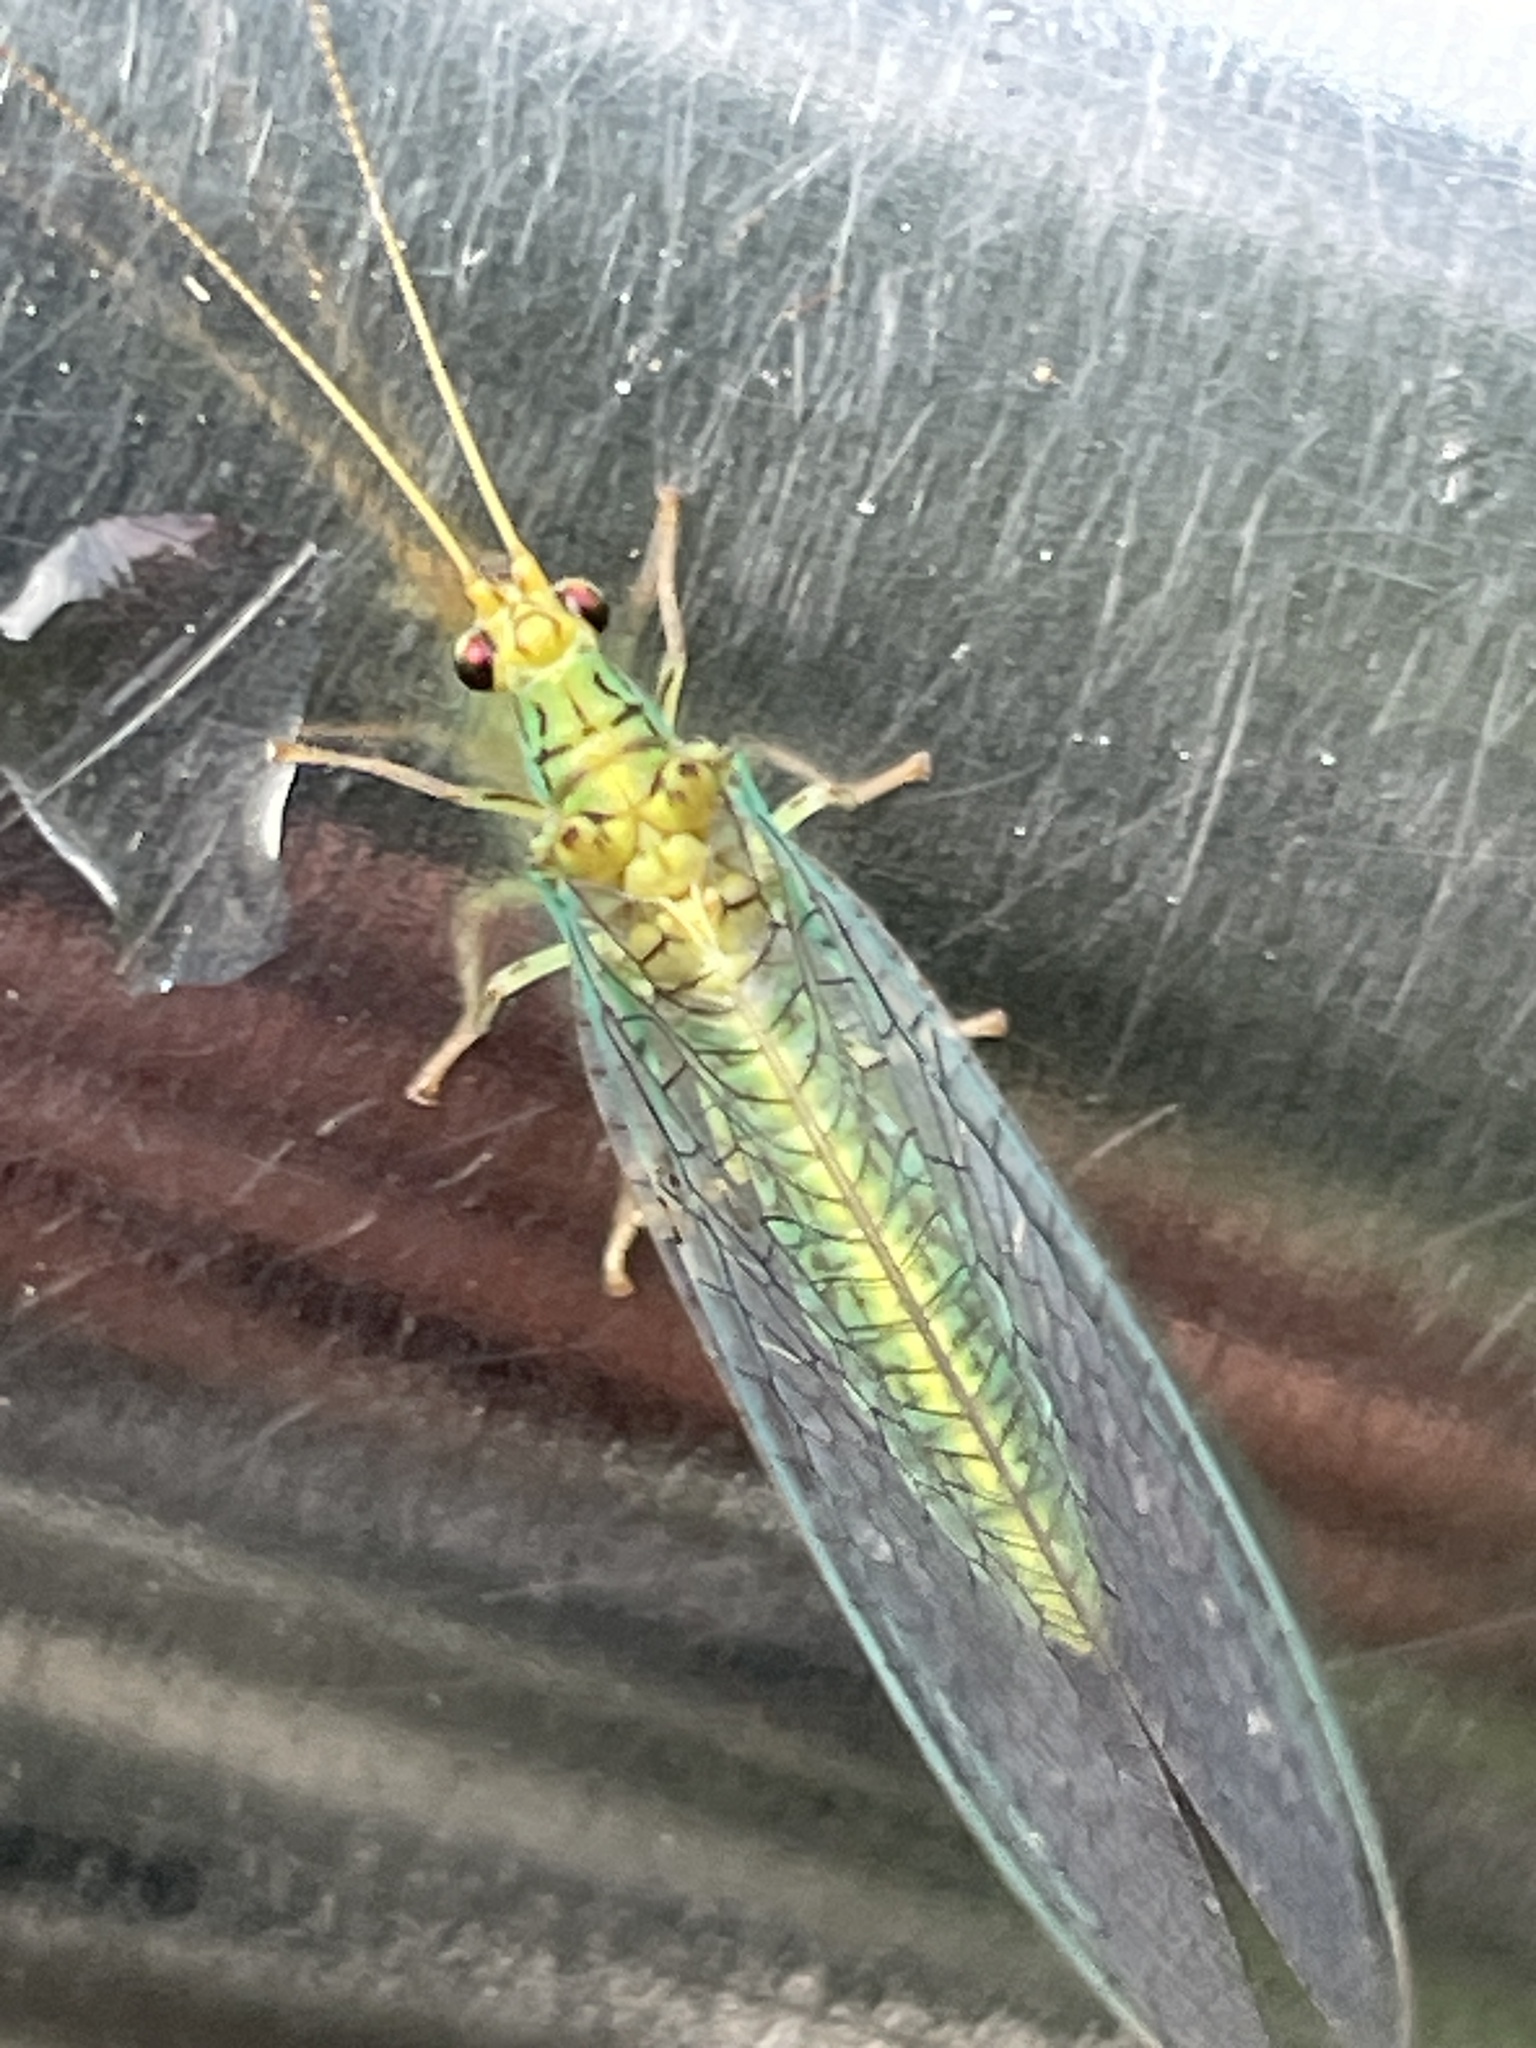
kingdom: Animalia
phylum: Arthropoda
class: Insecta
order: Neuroptera
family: Chrysopidae
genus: Dictyochrysa
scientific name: Dictyochrysa peterseni
